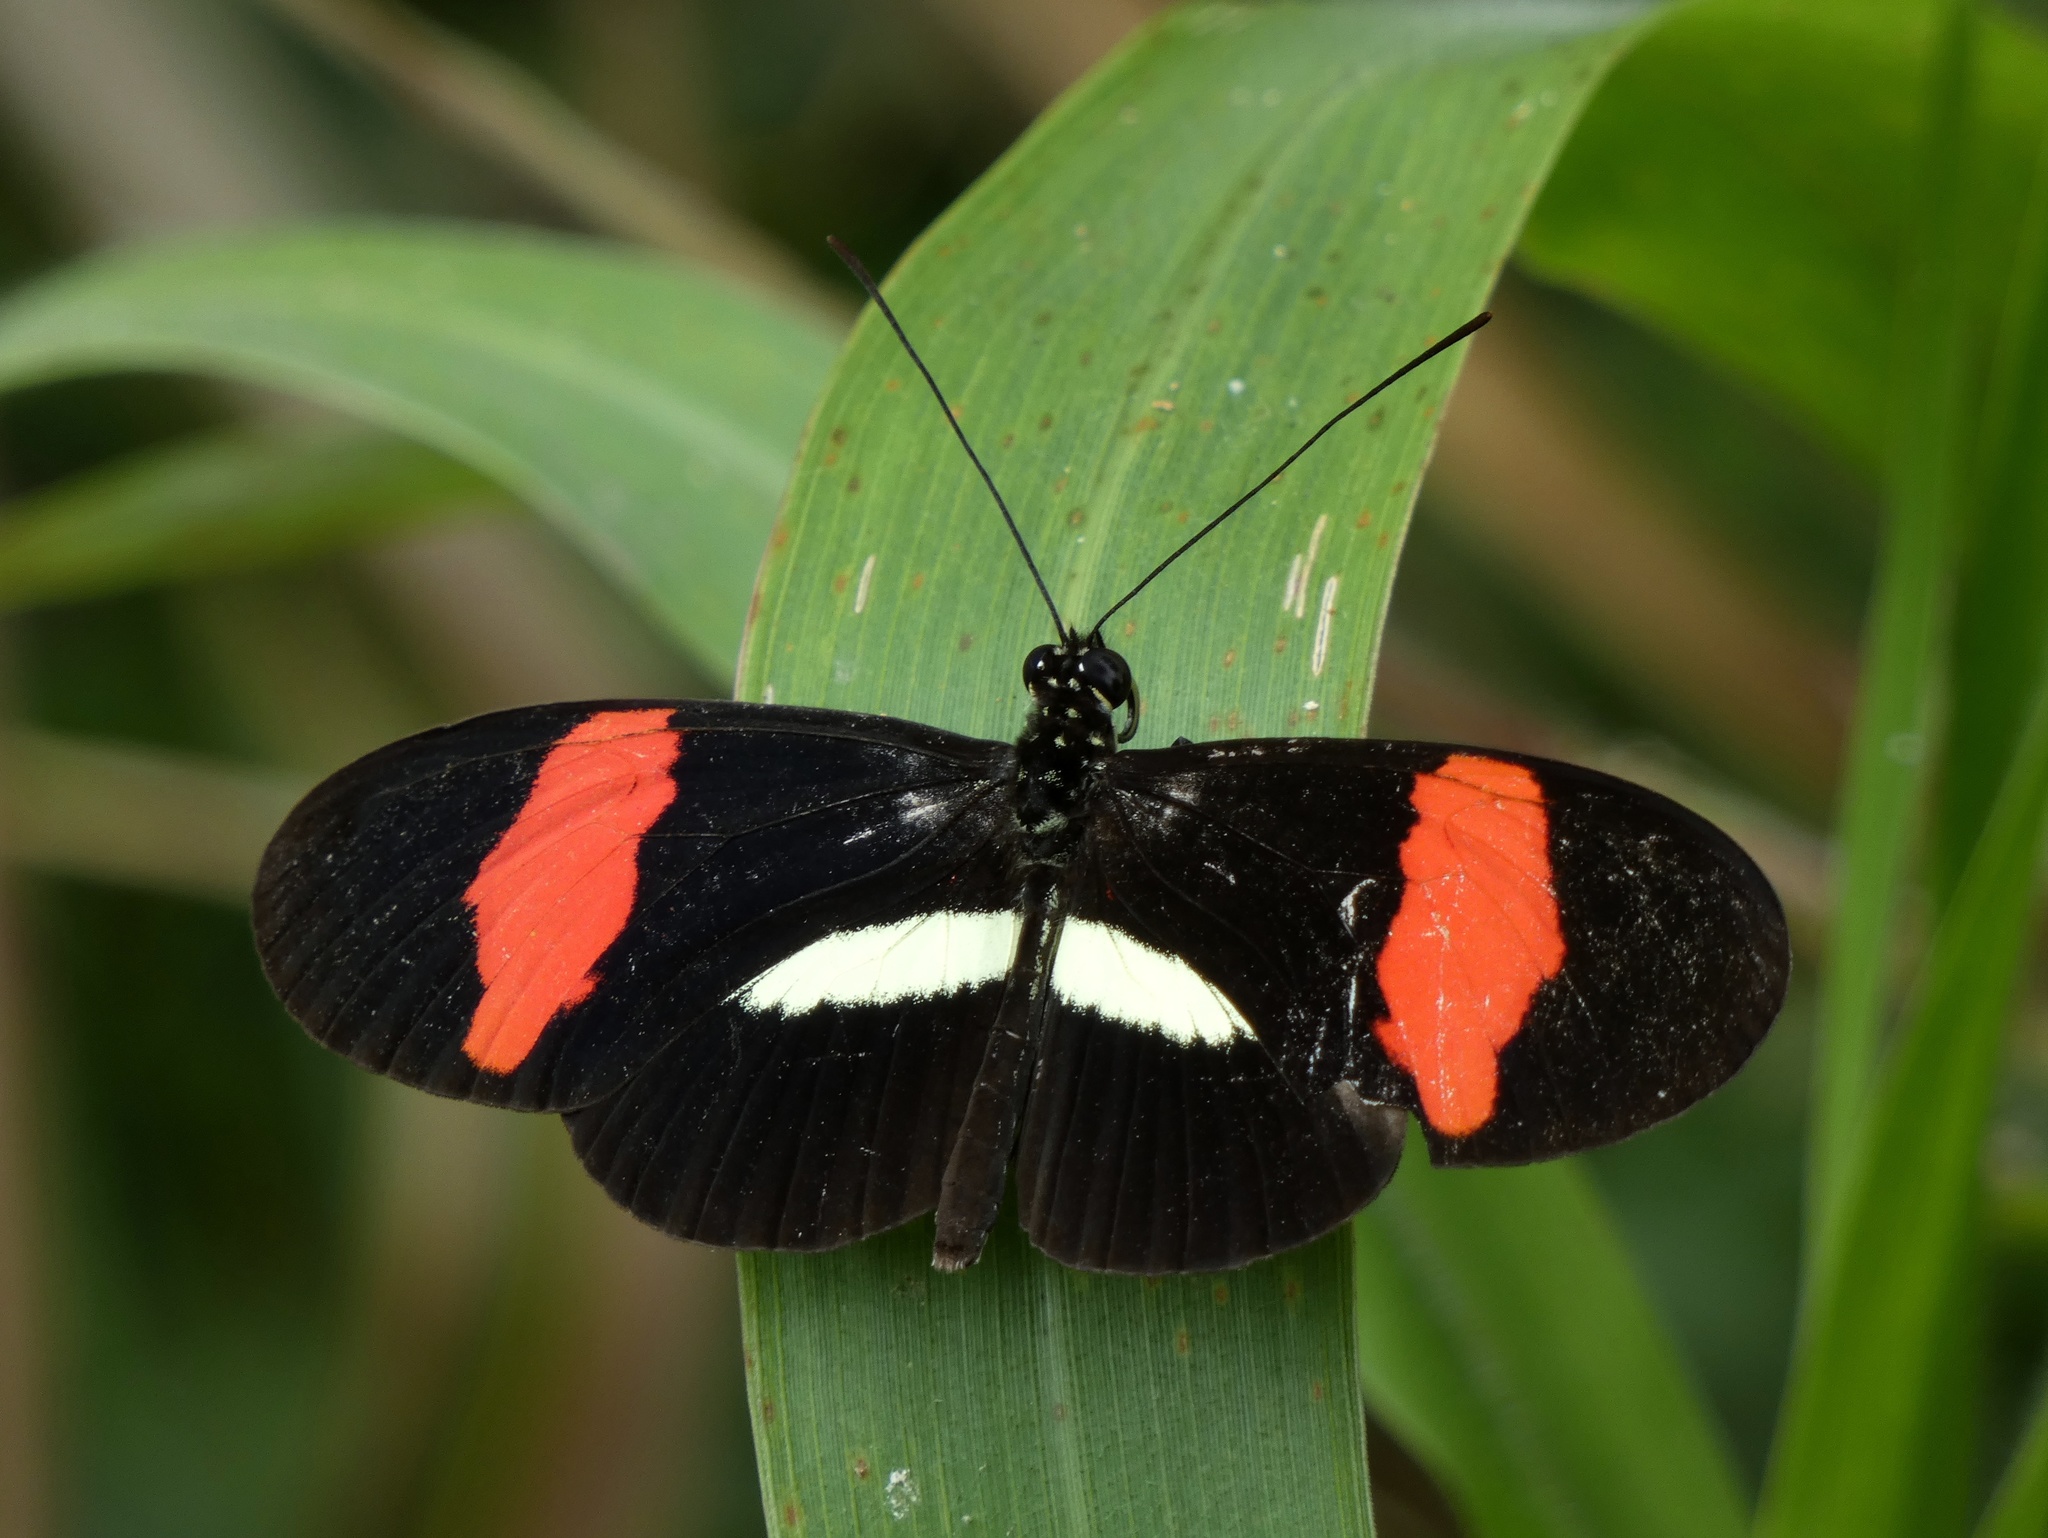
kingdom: Animalia
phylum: Arthropoda
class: Insecta
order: Lepidoptera
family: Nymphalidae
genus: Tirumala
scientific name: Tirumala petiverana
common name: Blue monarch
